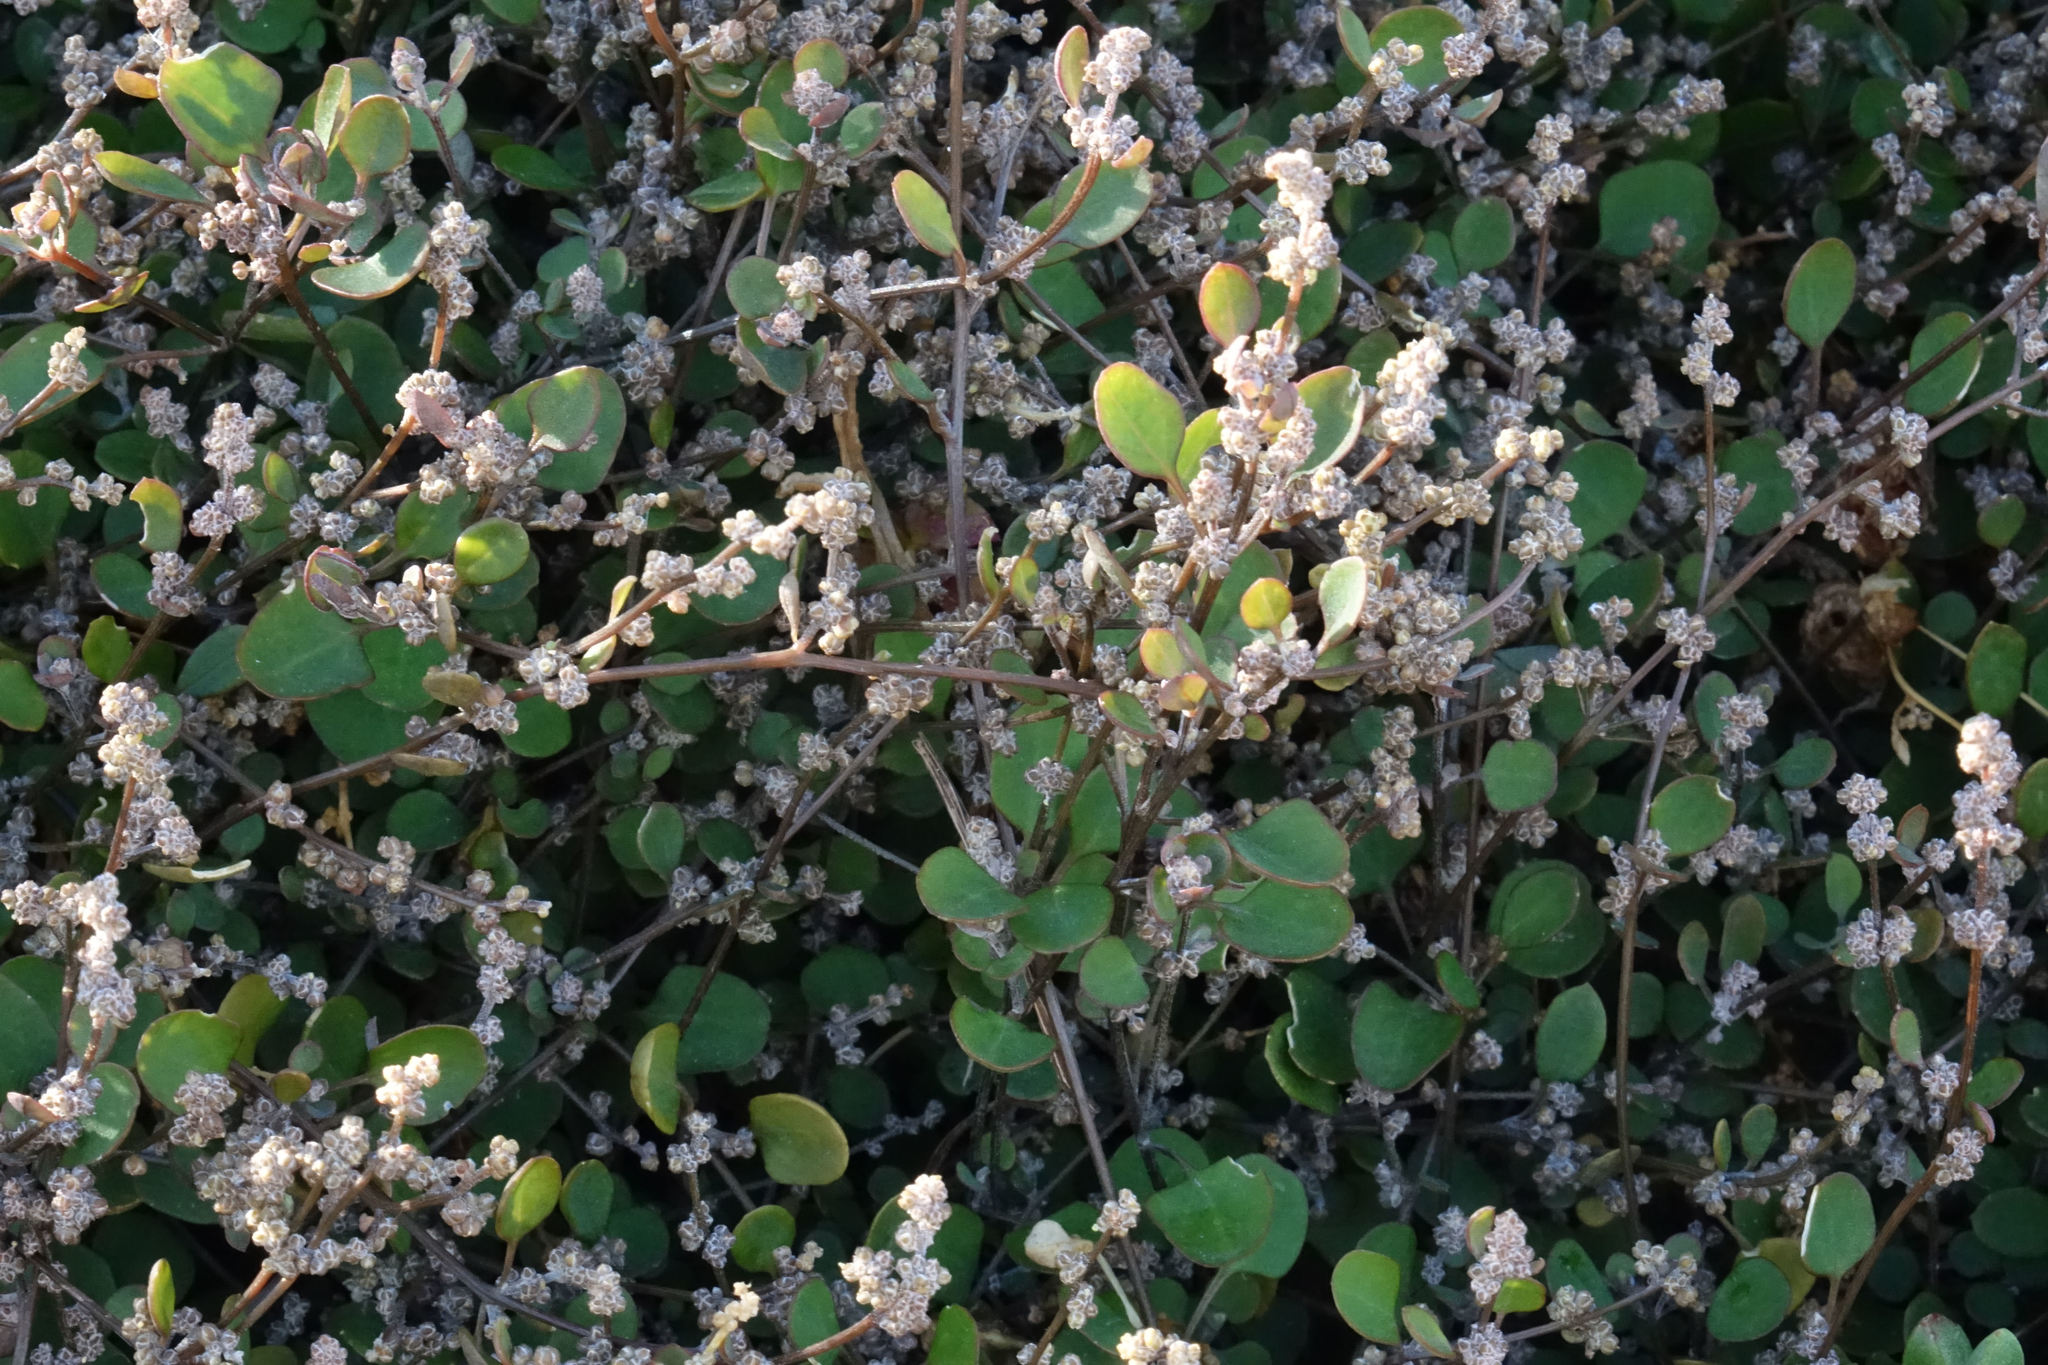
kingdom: Plantae
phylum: Tracheophyta
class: Magnoliopsida
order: Caryophyllales
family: Amaranthaceae
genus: Chenopodium
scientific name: Chenopodium allanii
